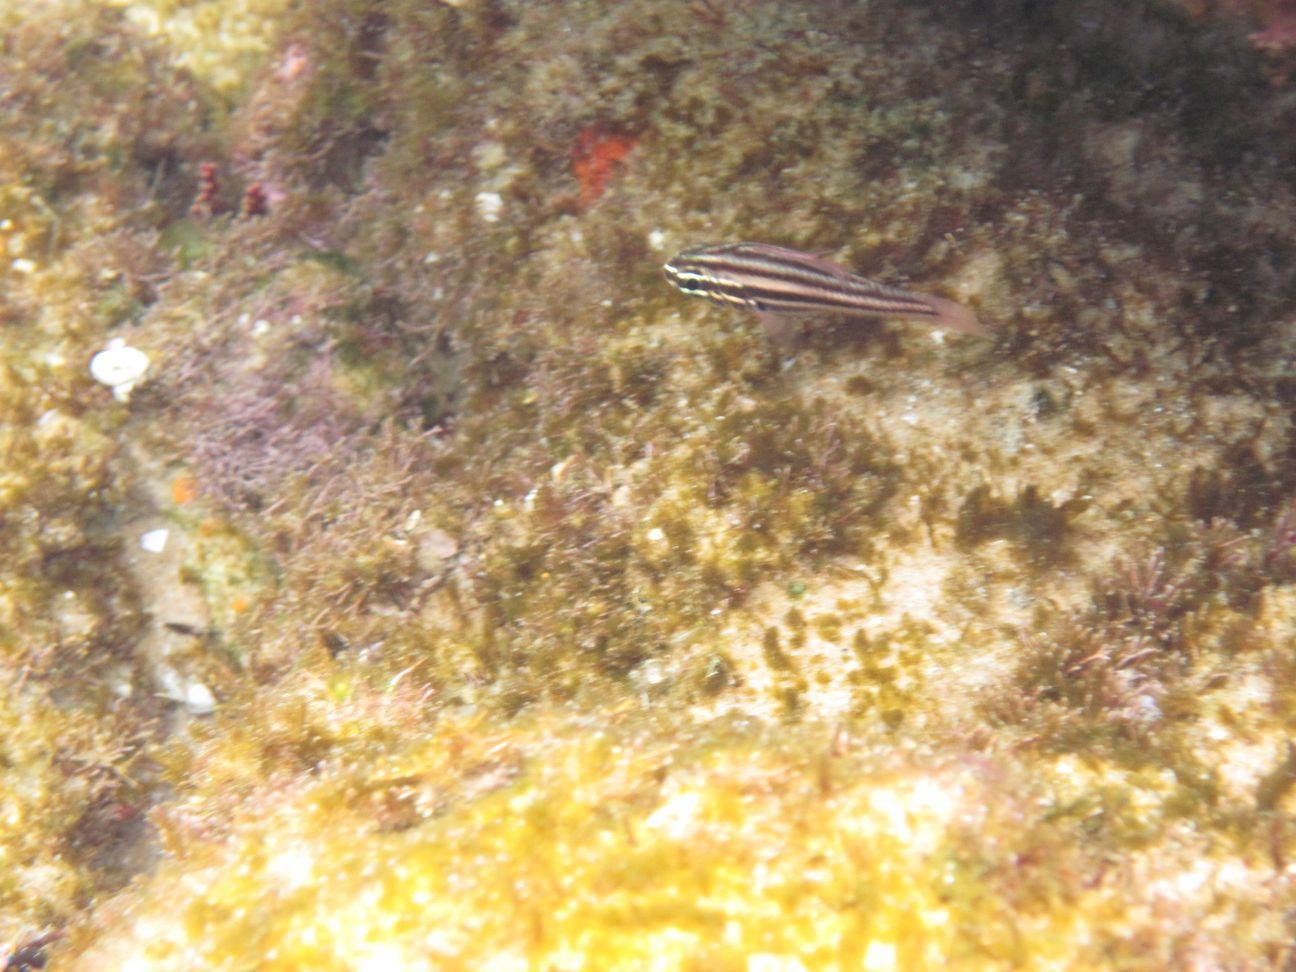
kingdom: Animalia
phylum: Chordata
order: Perciformes
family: Apogonidae
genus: Ostorhinchus
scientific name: Ostorhinchus angustatus
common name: Narrow-striped cardinalfish
